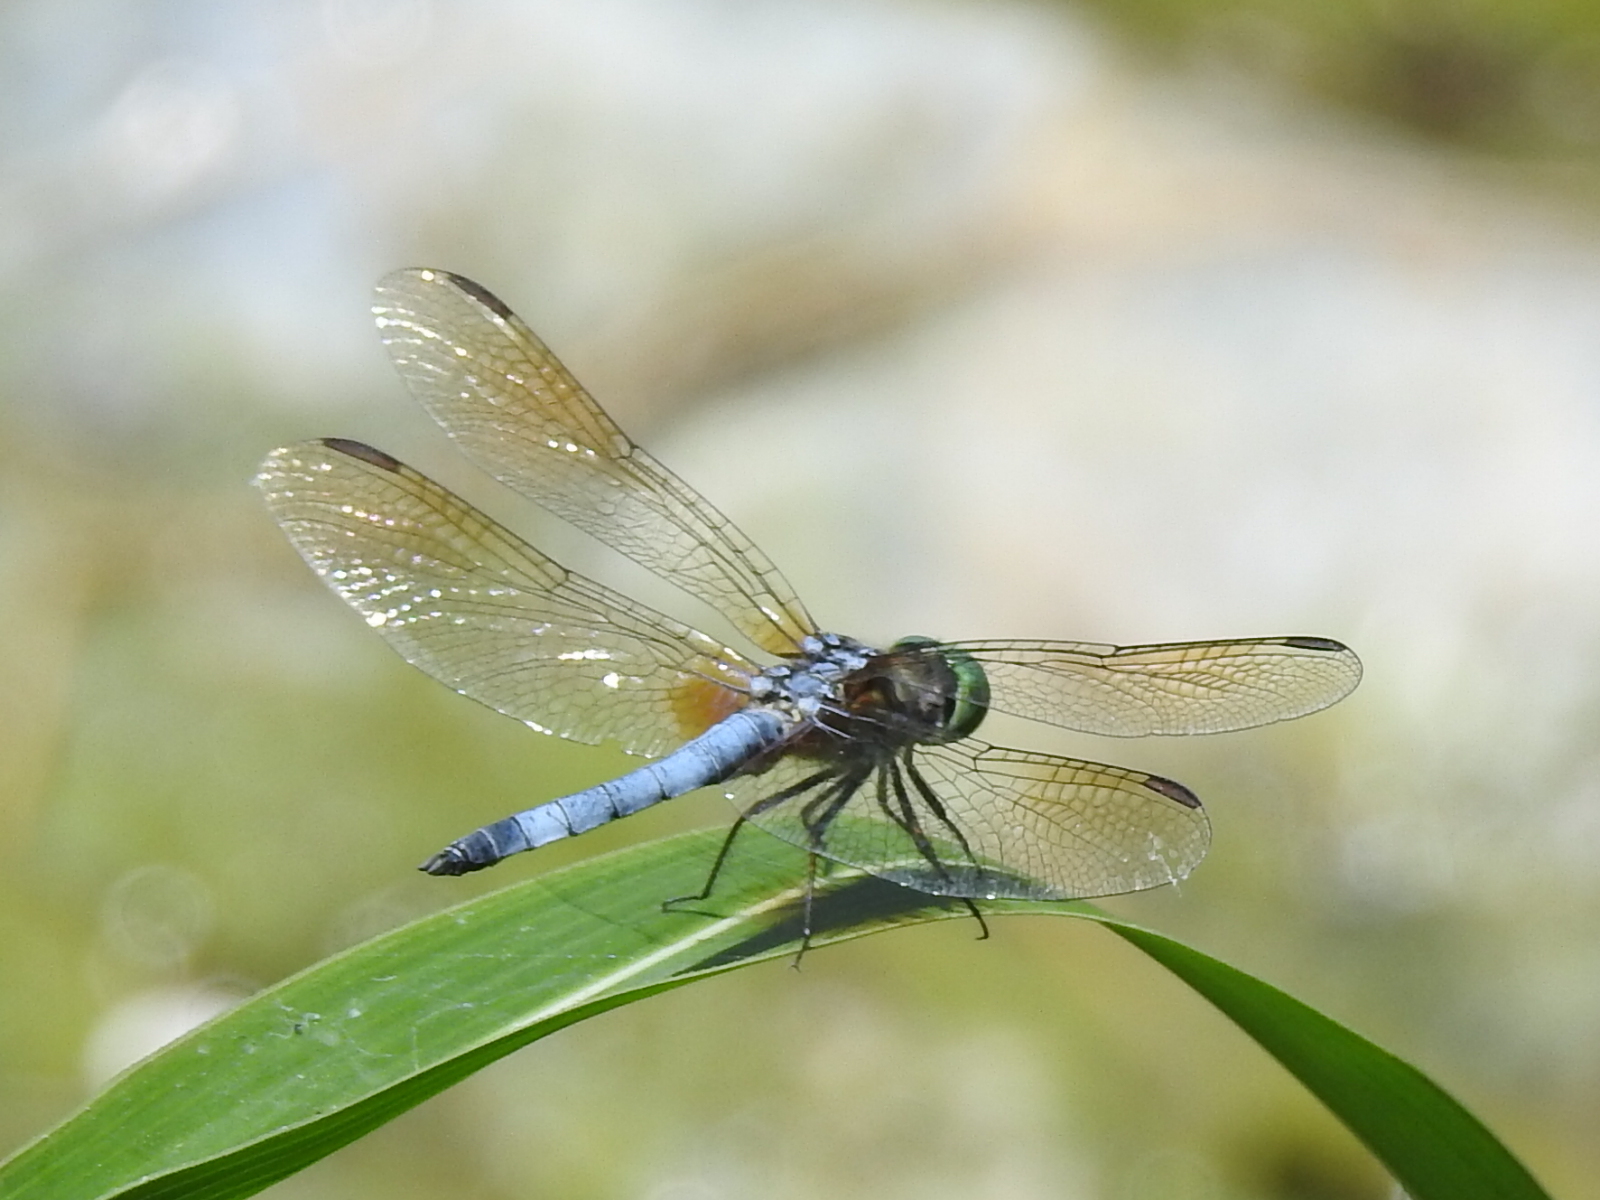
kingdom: Animalia
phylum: Arthropoda
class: Insecta
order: Odonata
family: Libellulidae
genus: Pachydiplax
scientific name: Pachydiplax longipennis
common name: Blue dasher
